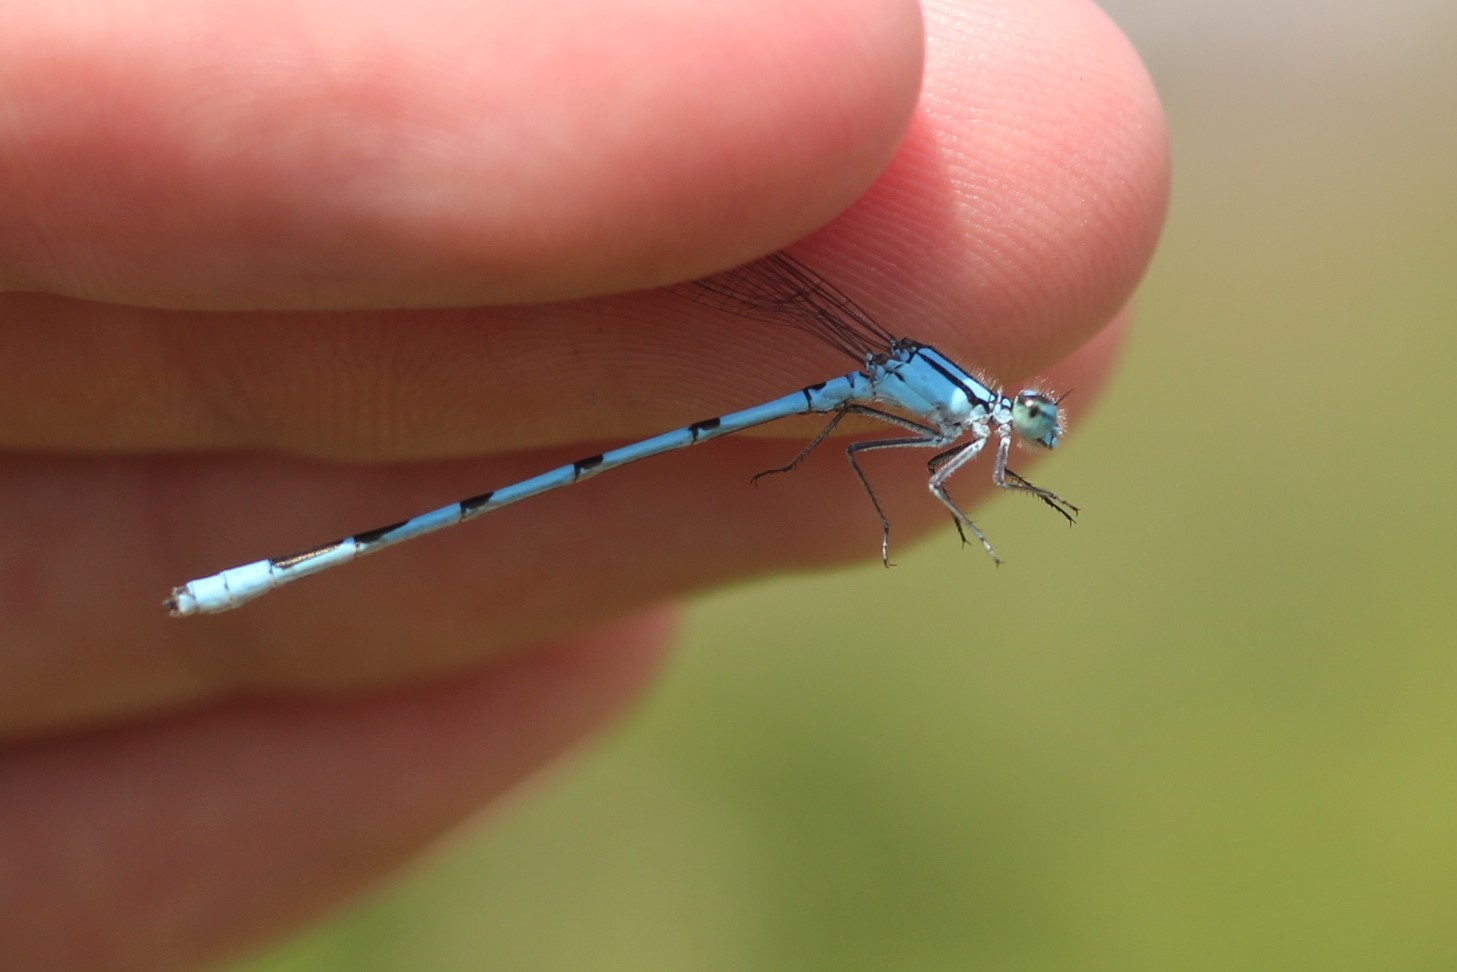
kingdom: Animalia
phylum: Arthropoda
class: Insecta
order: Odonata
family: Coenagrionidae
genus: Enallagma
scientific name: Enallagma ebrium
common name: Marsh bluet
